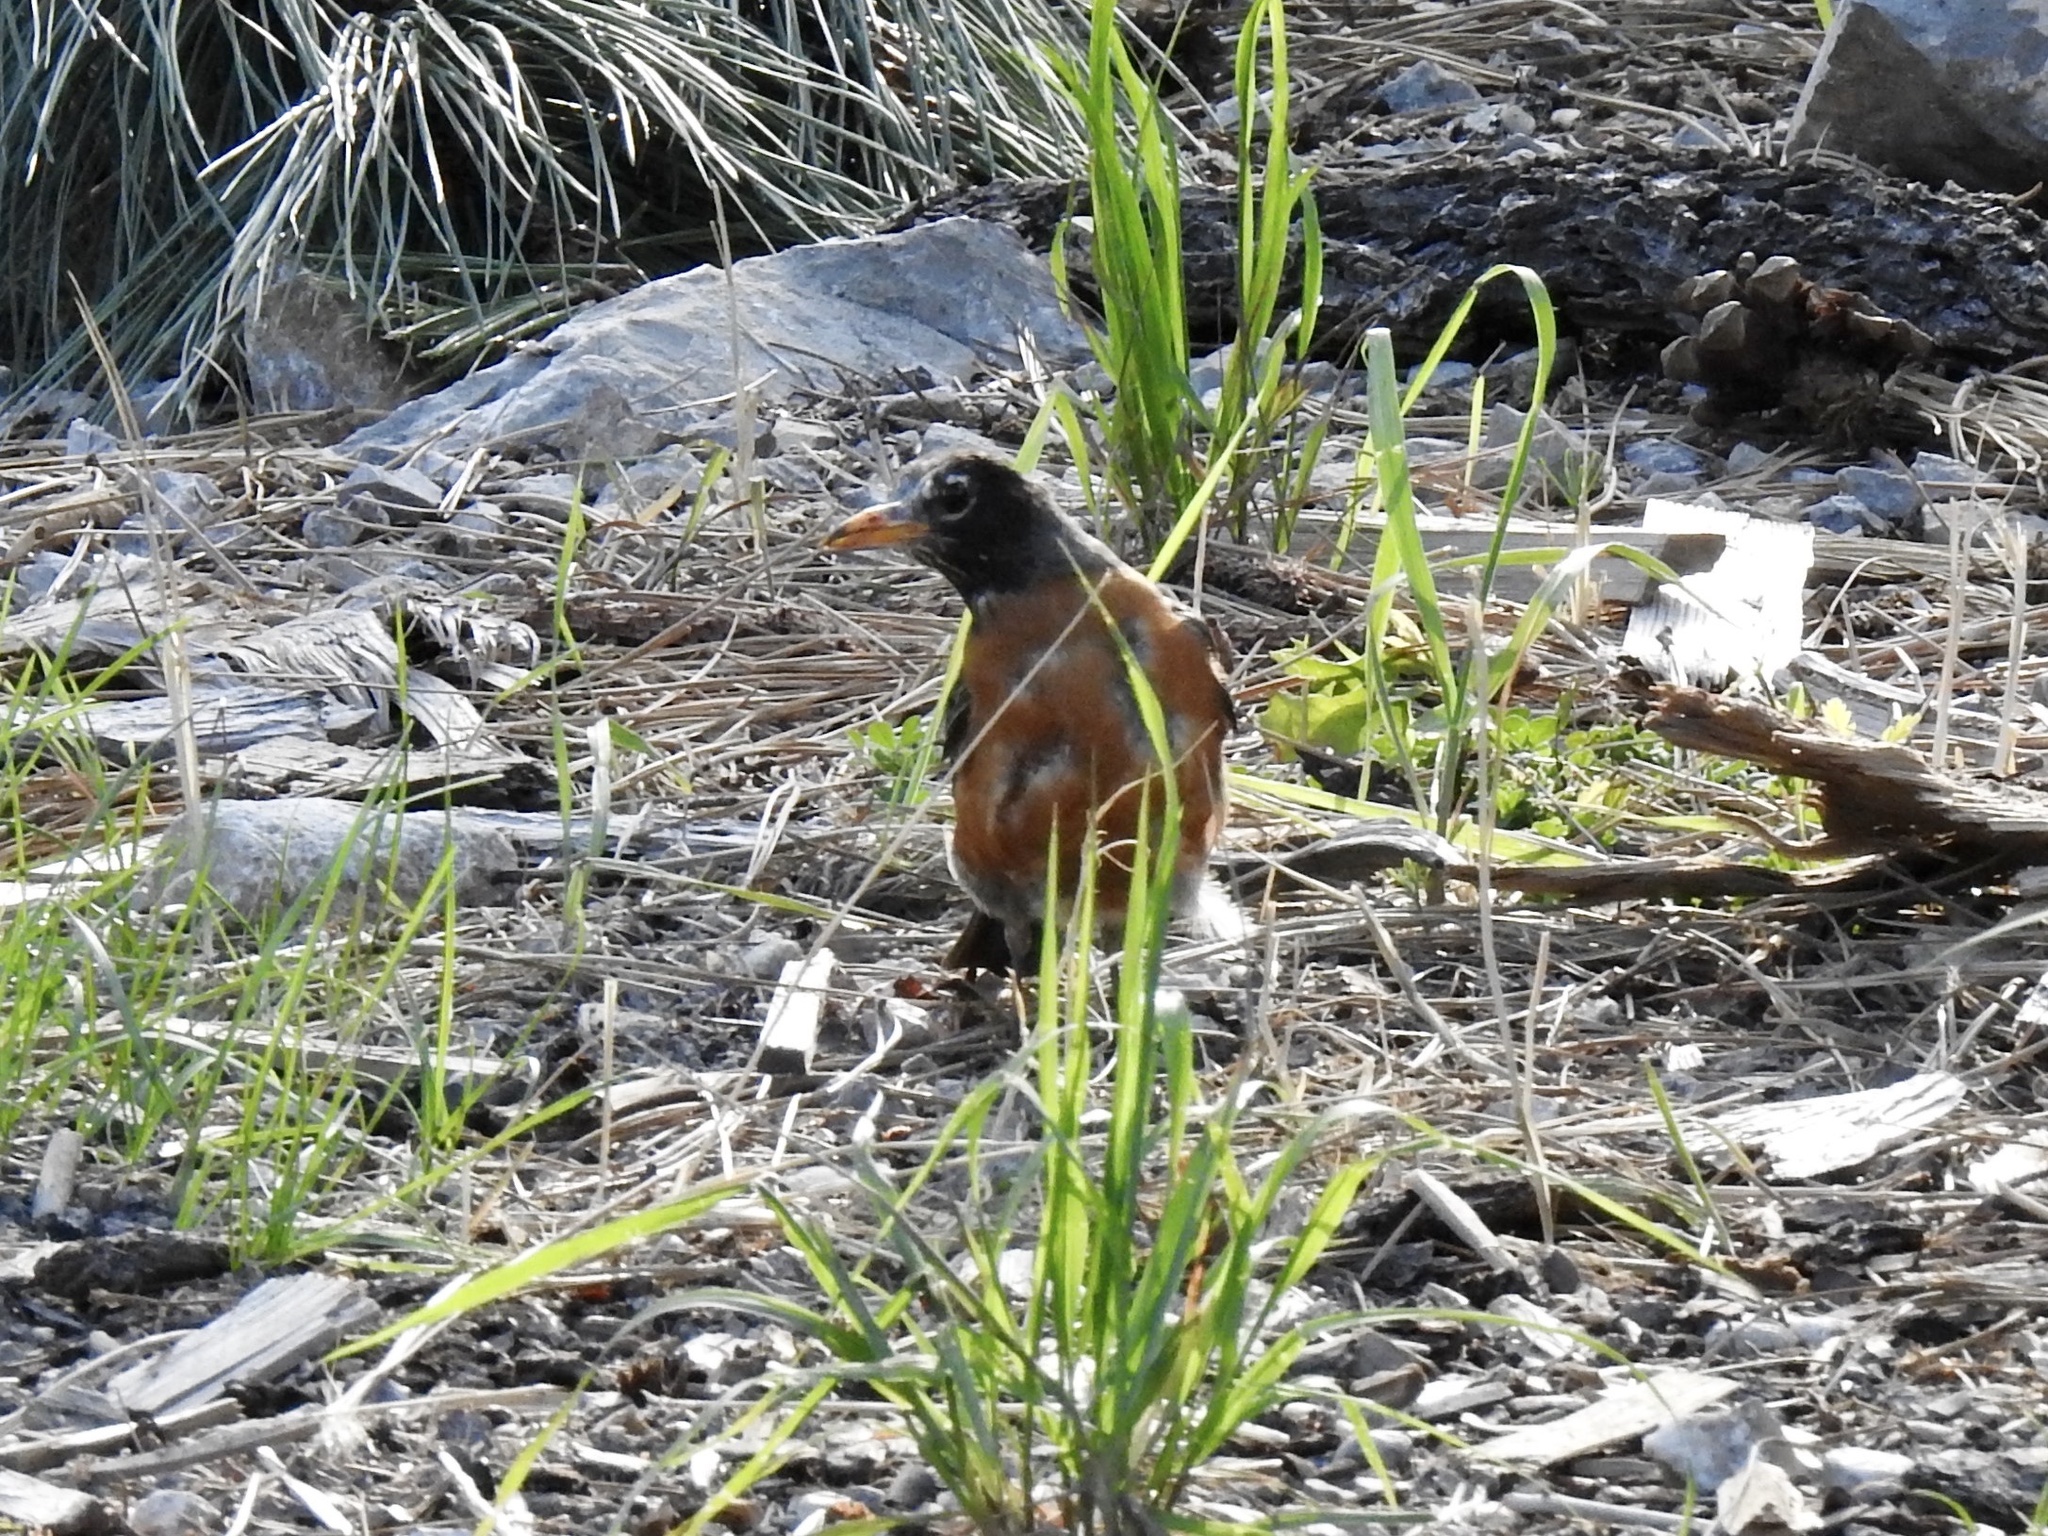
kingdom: Animalia
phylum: Chordata
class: Aves
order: Passeriformes
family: Turdidae
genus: Turdus
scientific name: Turdus migratorius
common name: American robin
